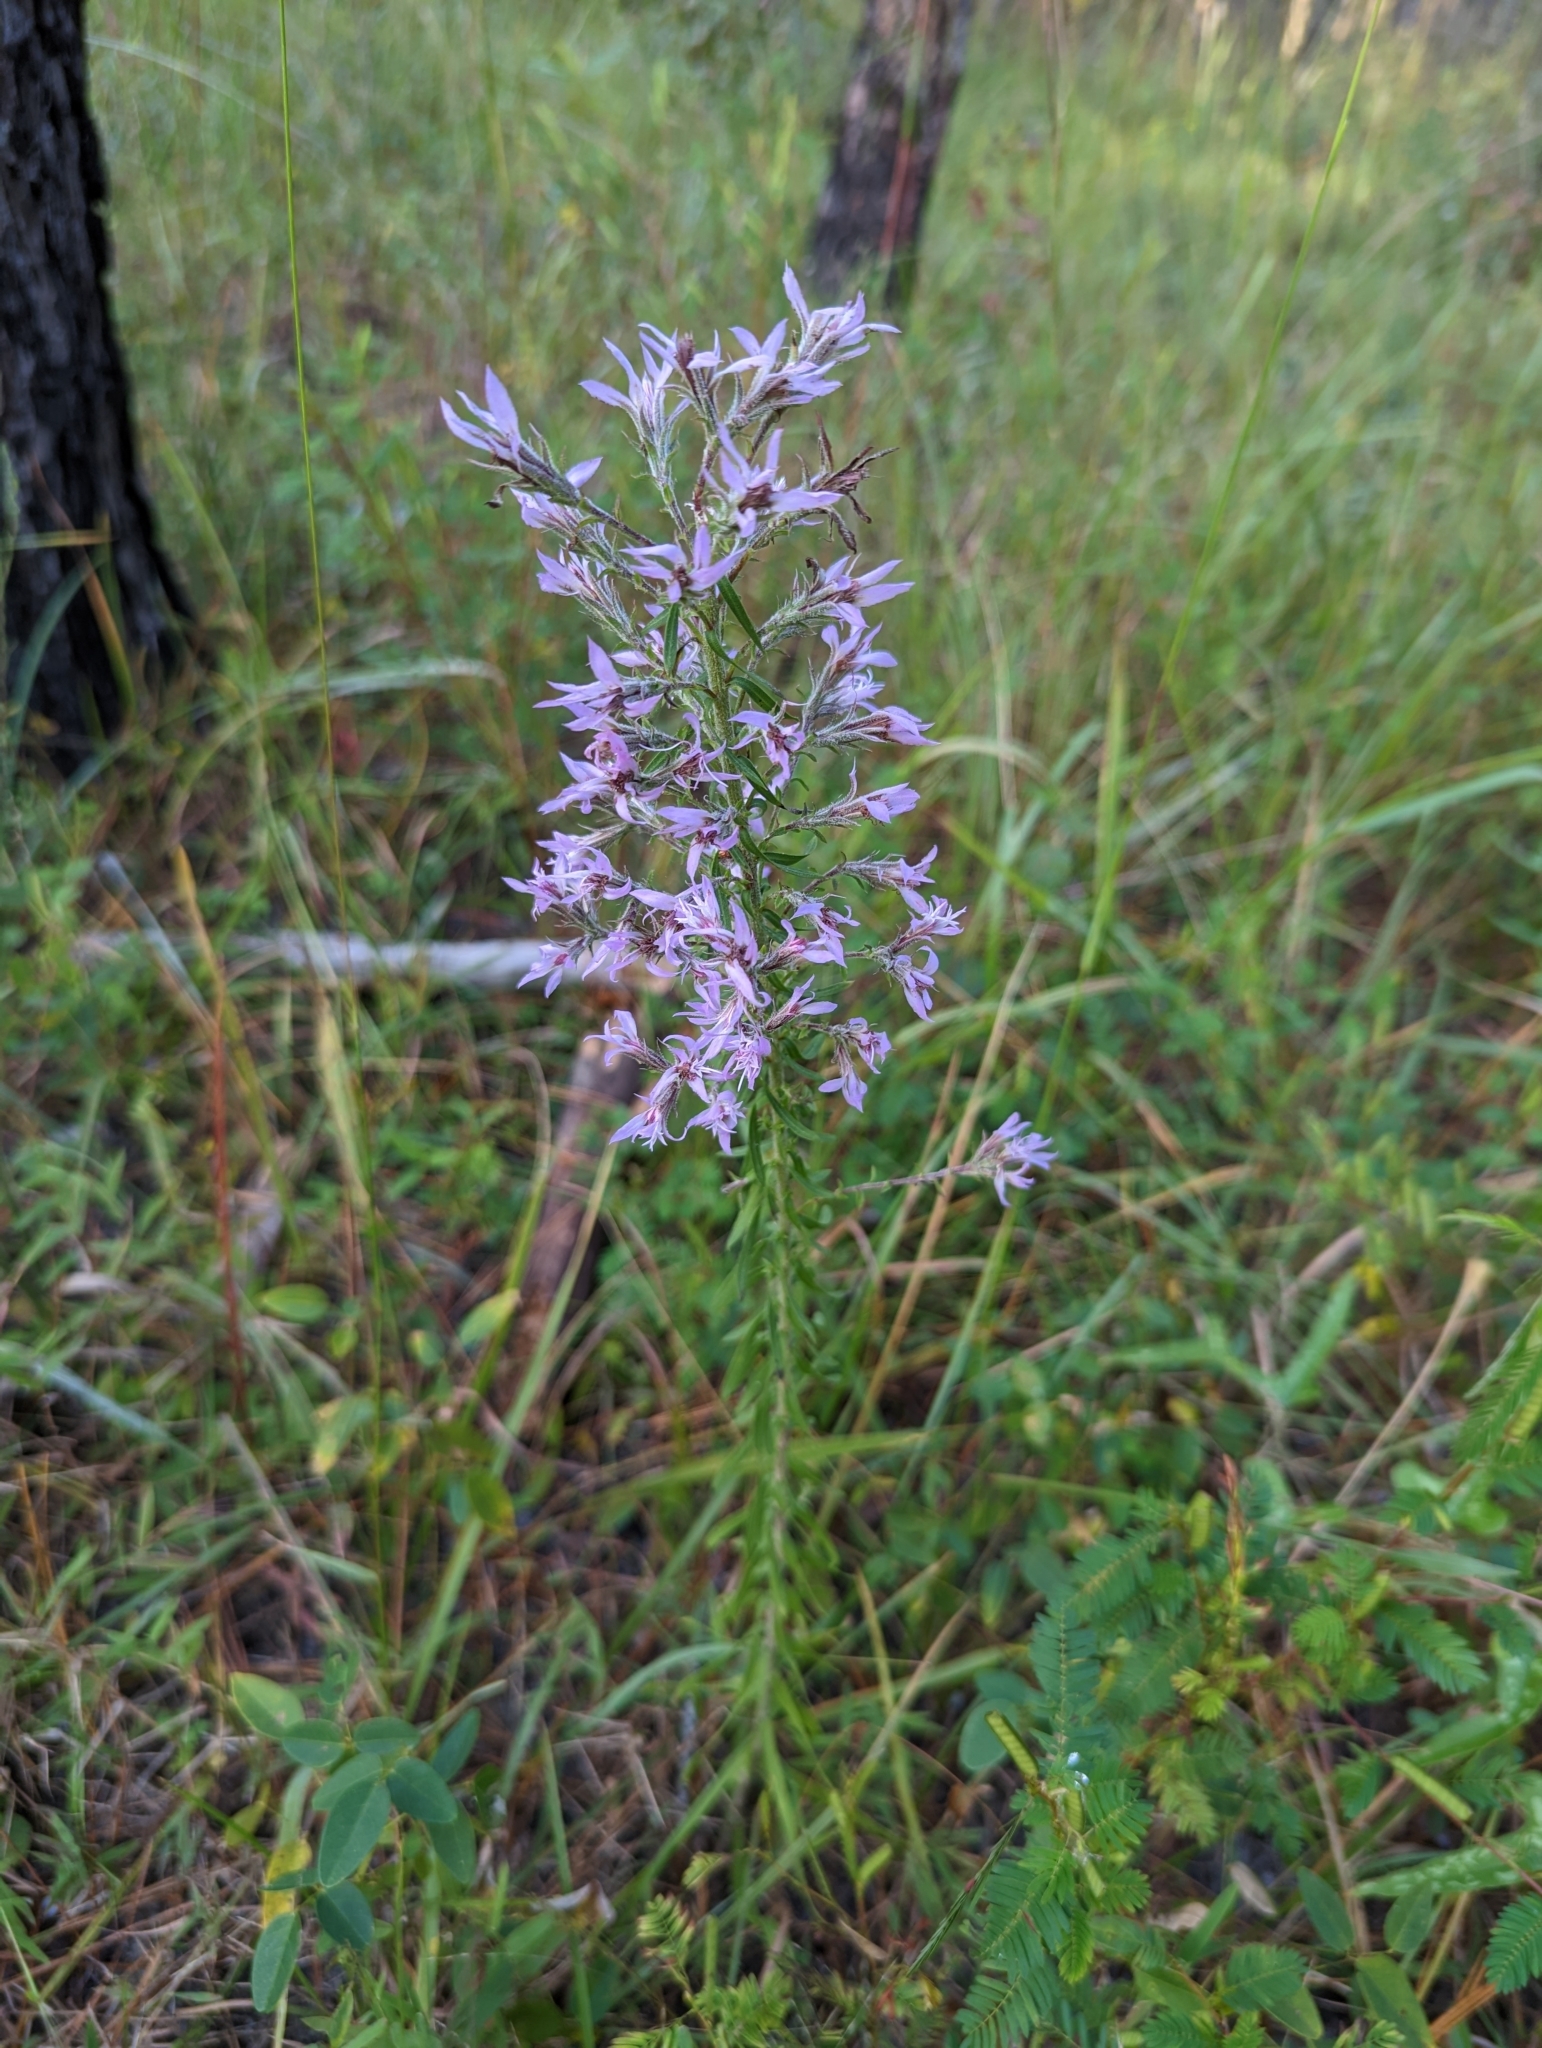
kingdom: Plantae
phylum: Tracheophyta
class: Magnoliopsida
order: Asterales
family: Asteraceae
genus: Liatris
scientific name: Liatris elegans
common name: Pinkscale gayfeather
